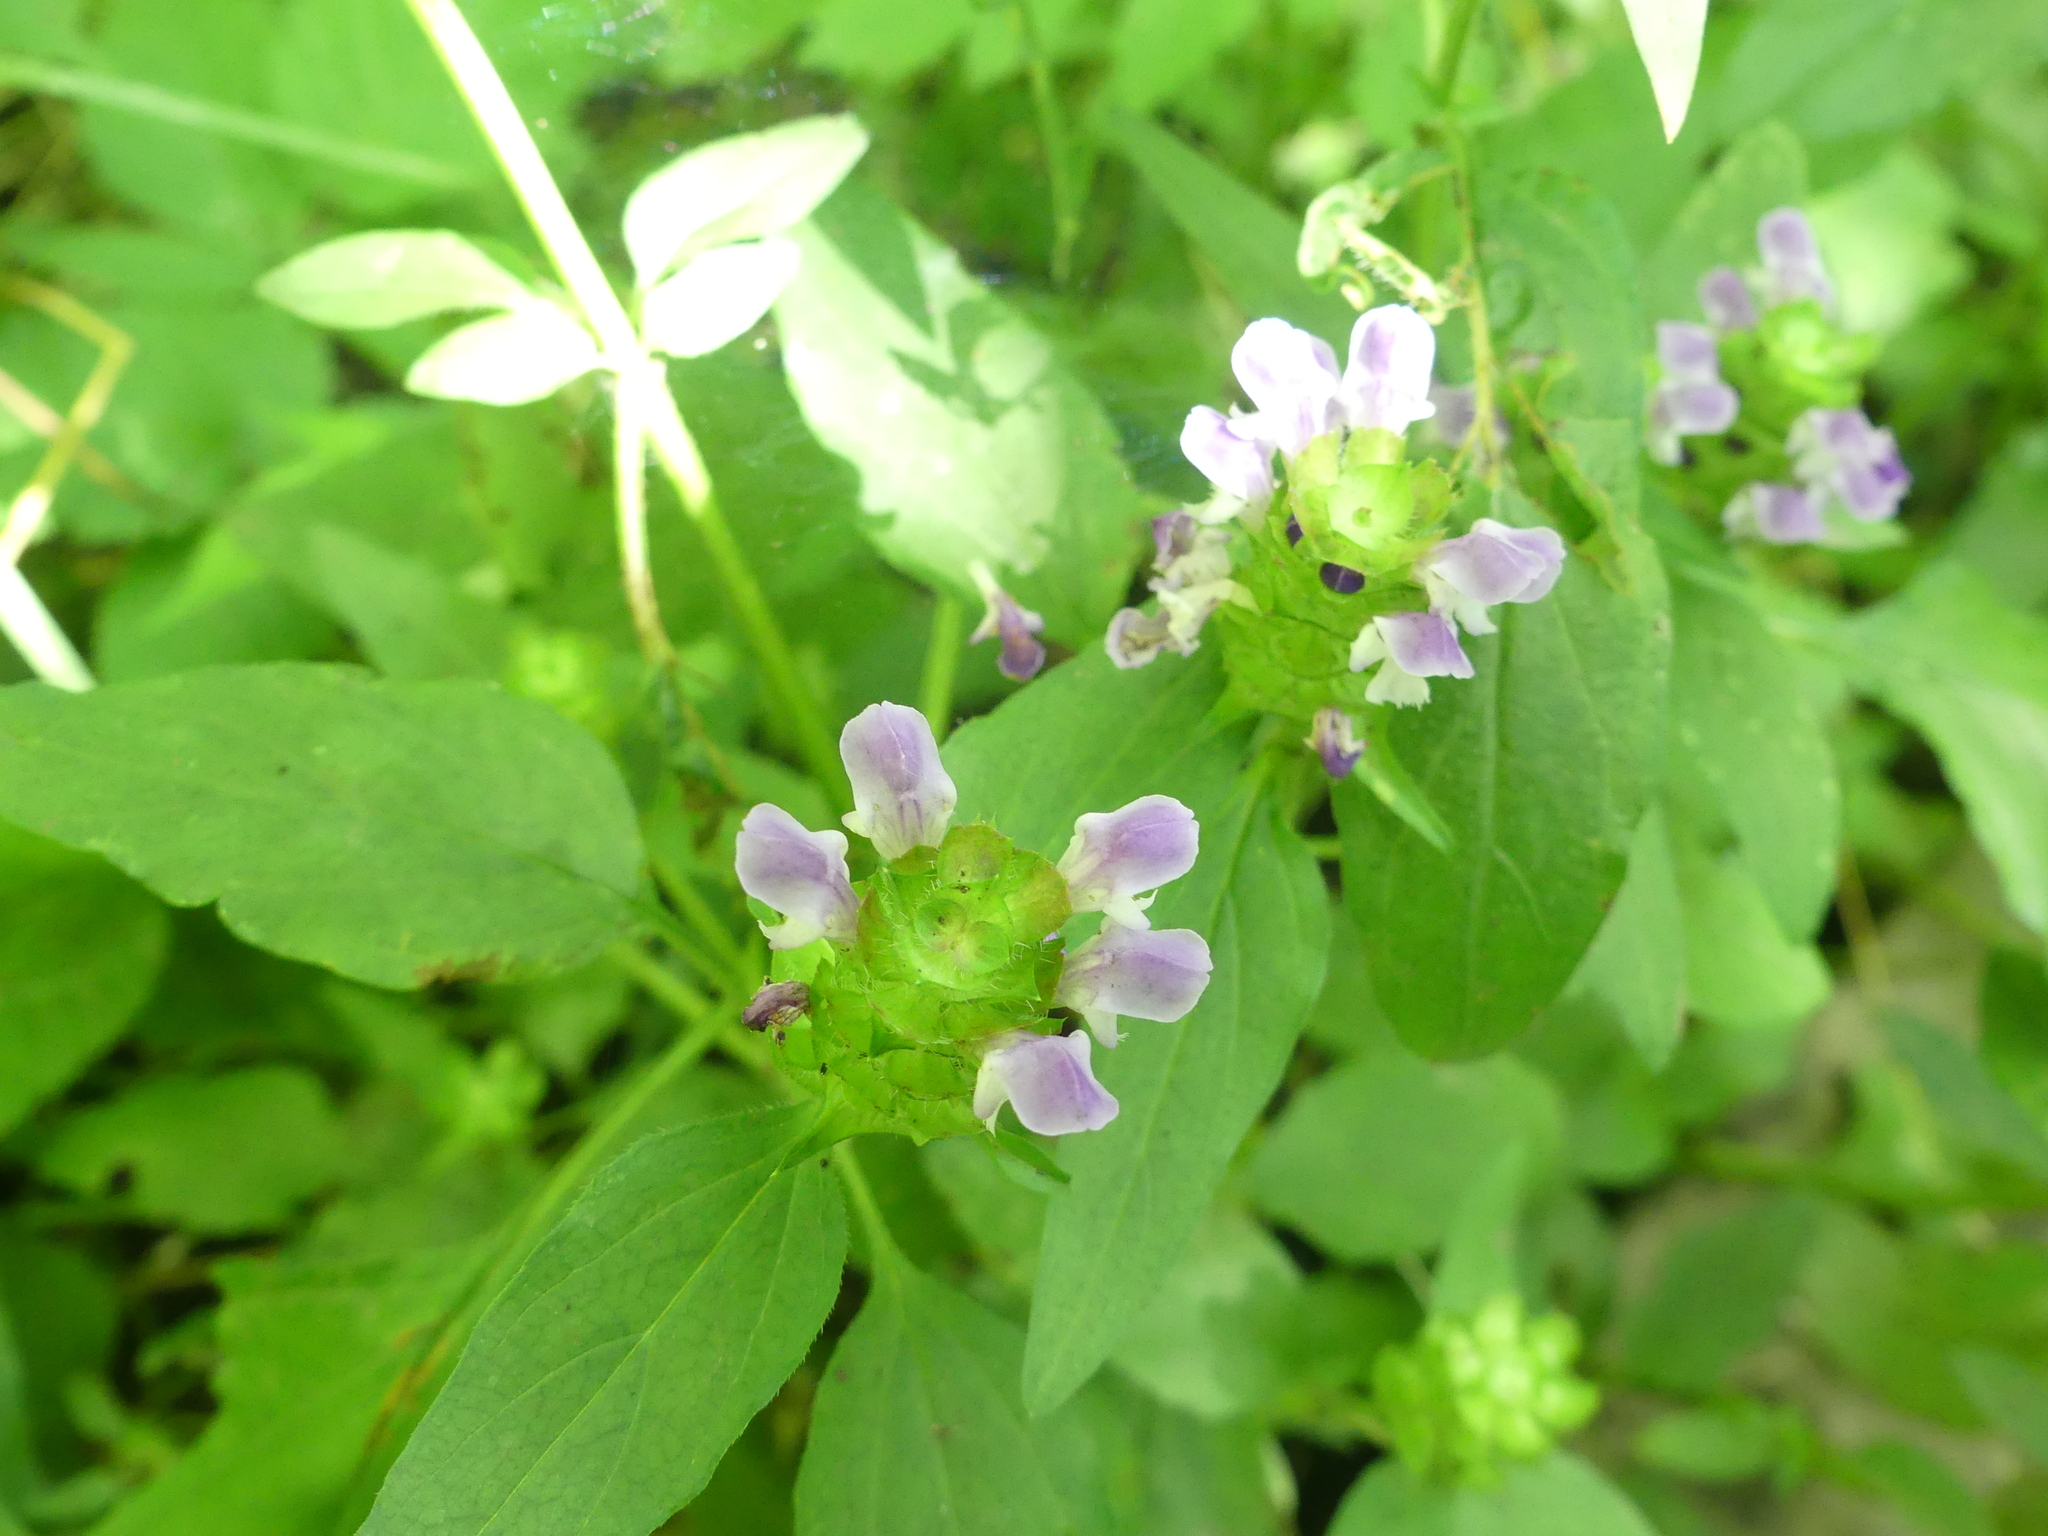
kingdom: Plantae
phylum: Tracheophyta
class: Magnoliopsida
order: Lamiales
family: Lamiaceae
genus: Prunella
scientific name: Prunella vulgaris
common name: Heal-all
